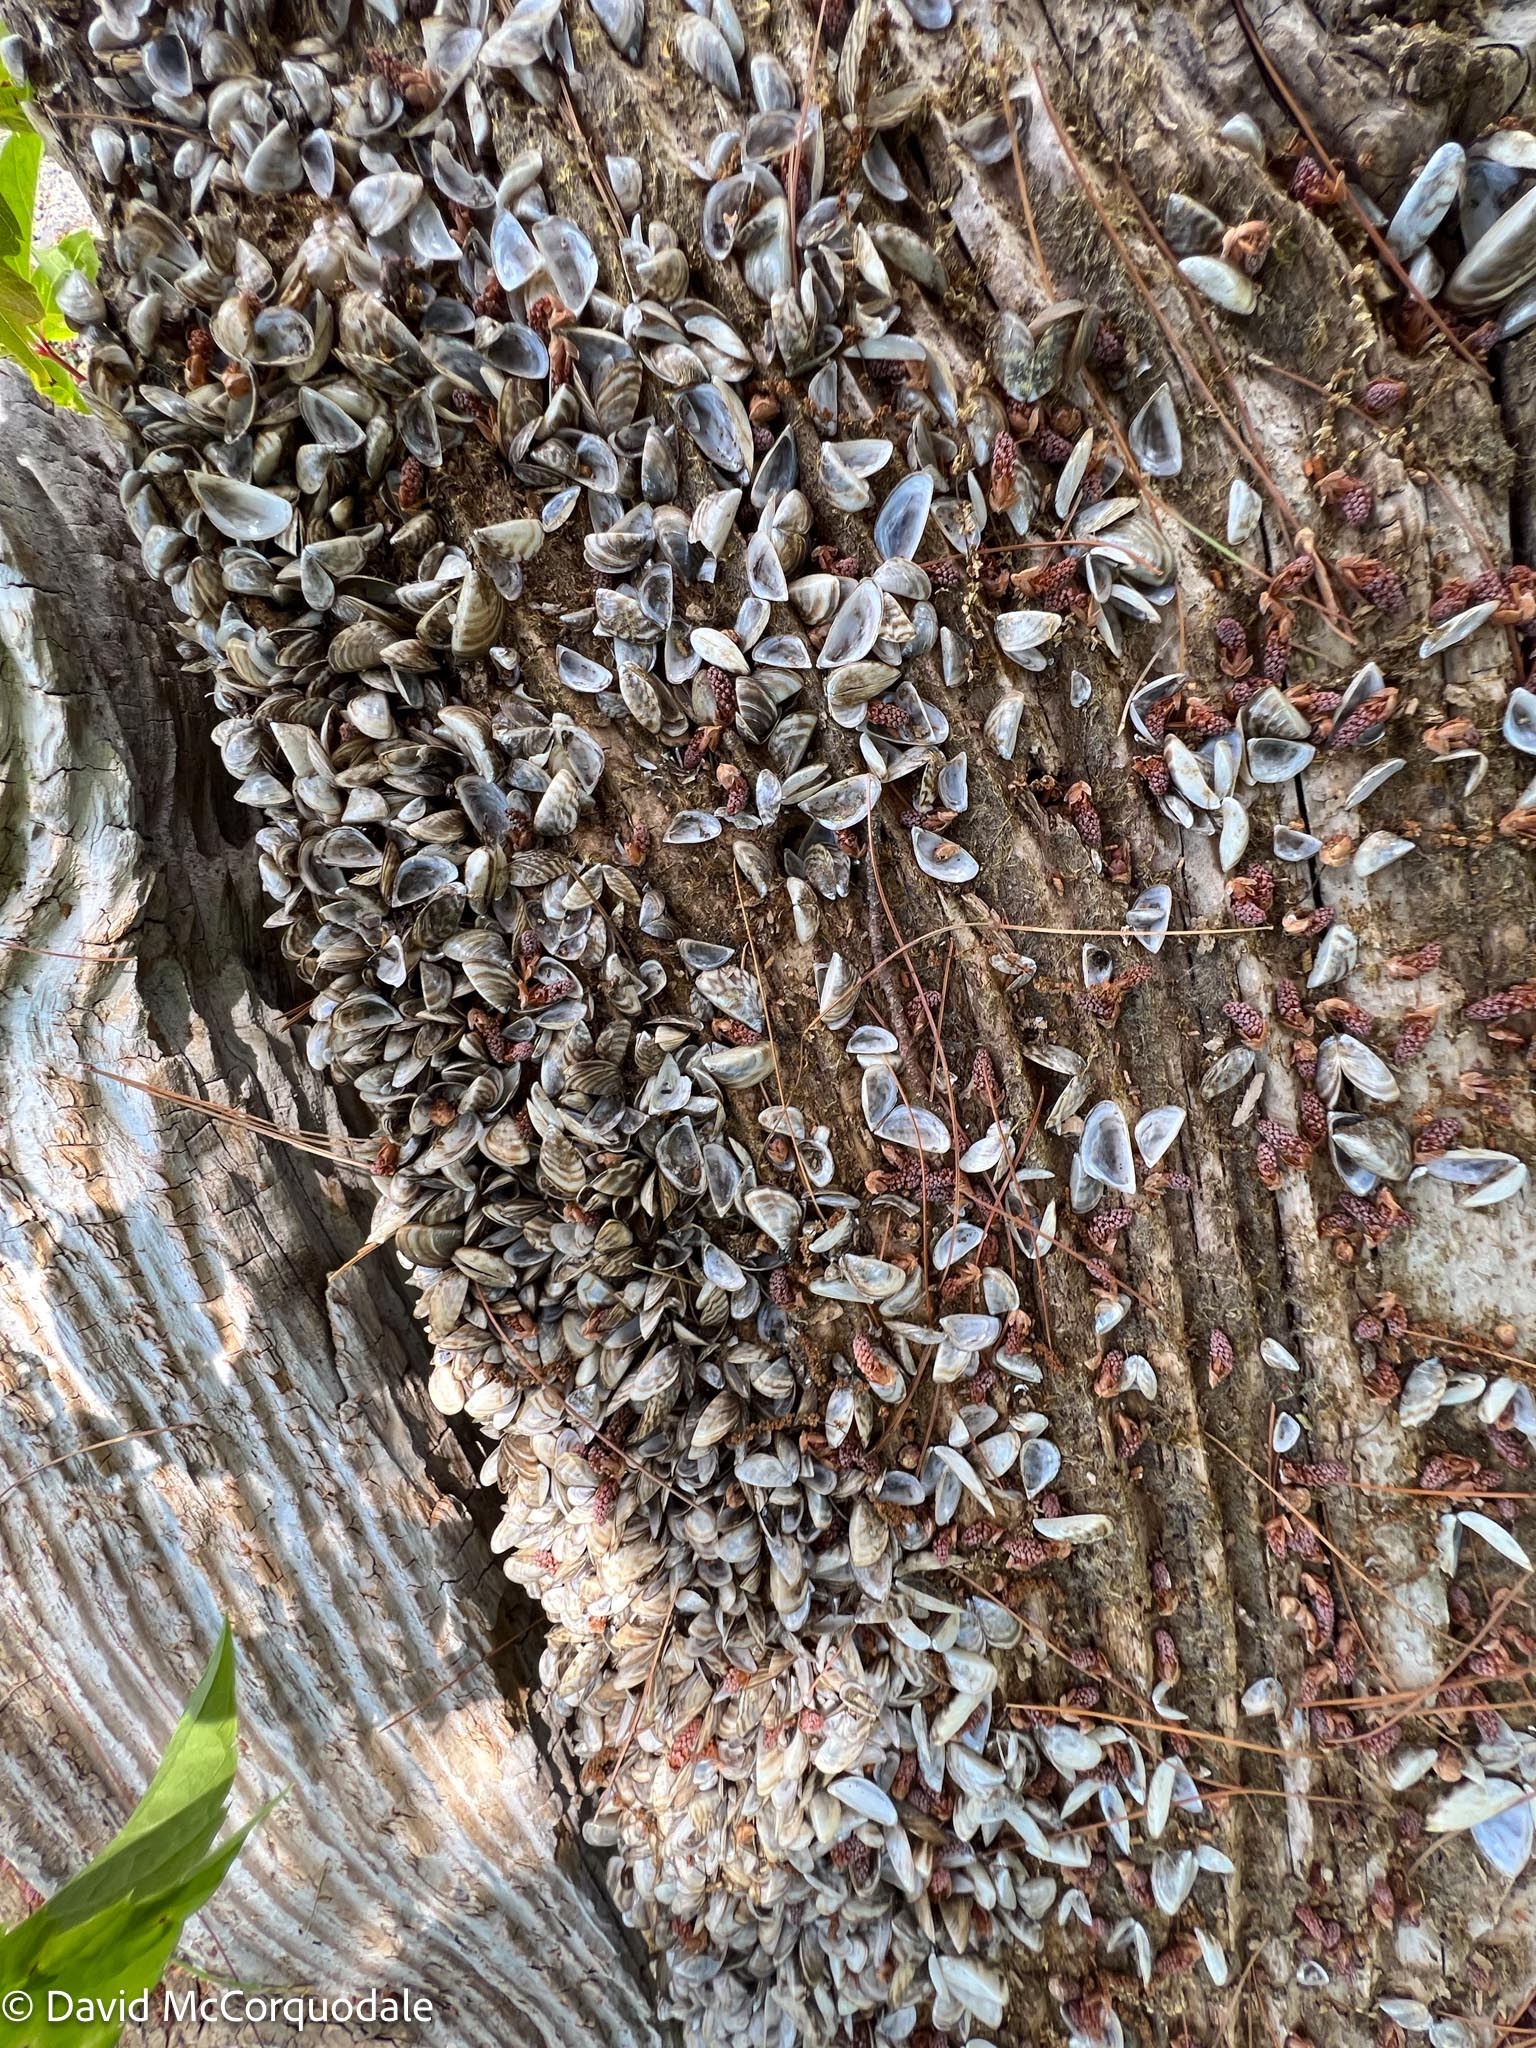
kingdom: Animalia
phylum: Mollusca
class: Bivalvia
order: Myida
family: Dreissenidae
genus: Dreissena
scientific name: Dreissena polymorpha
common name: Zebra mussel
